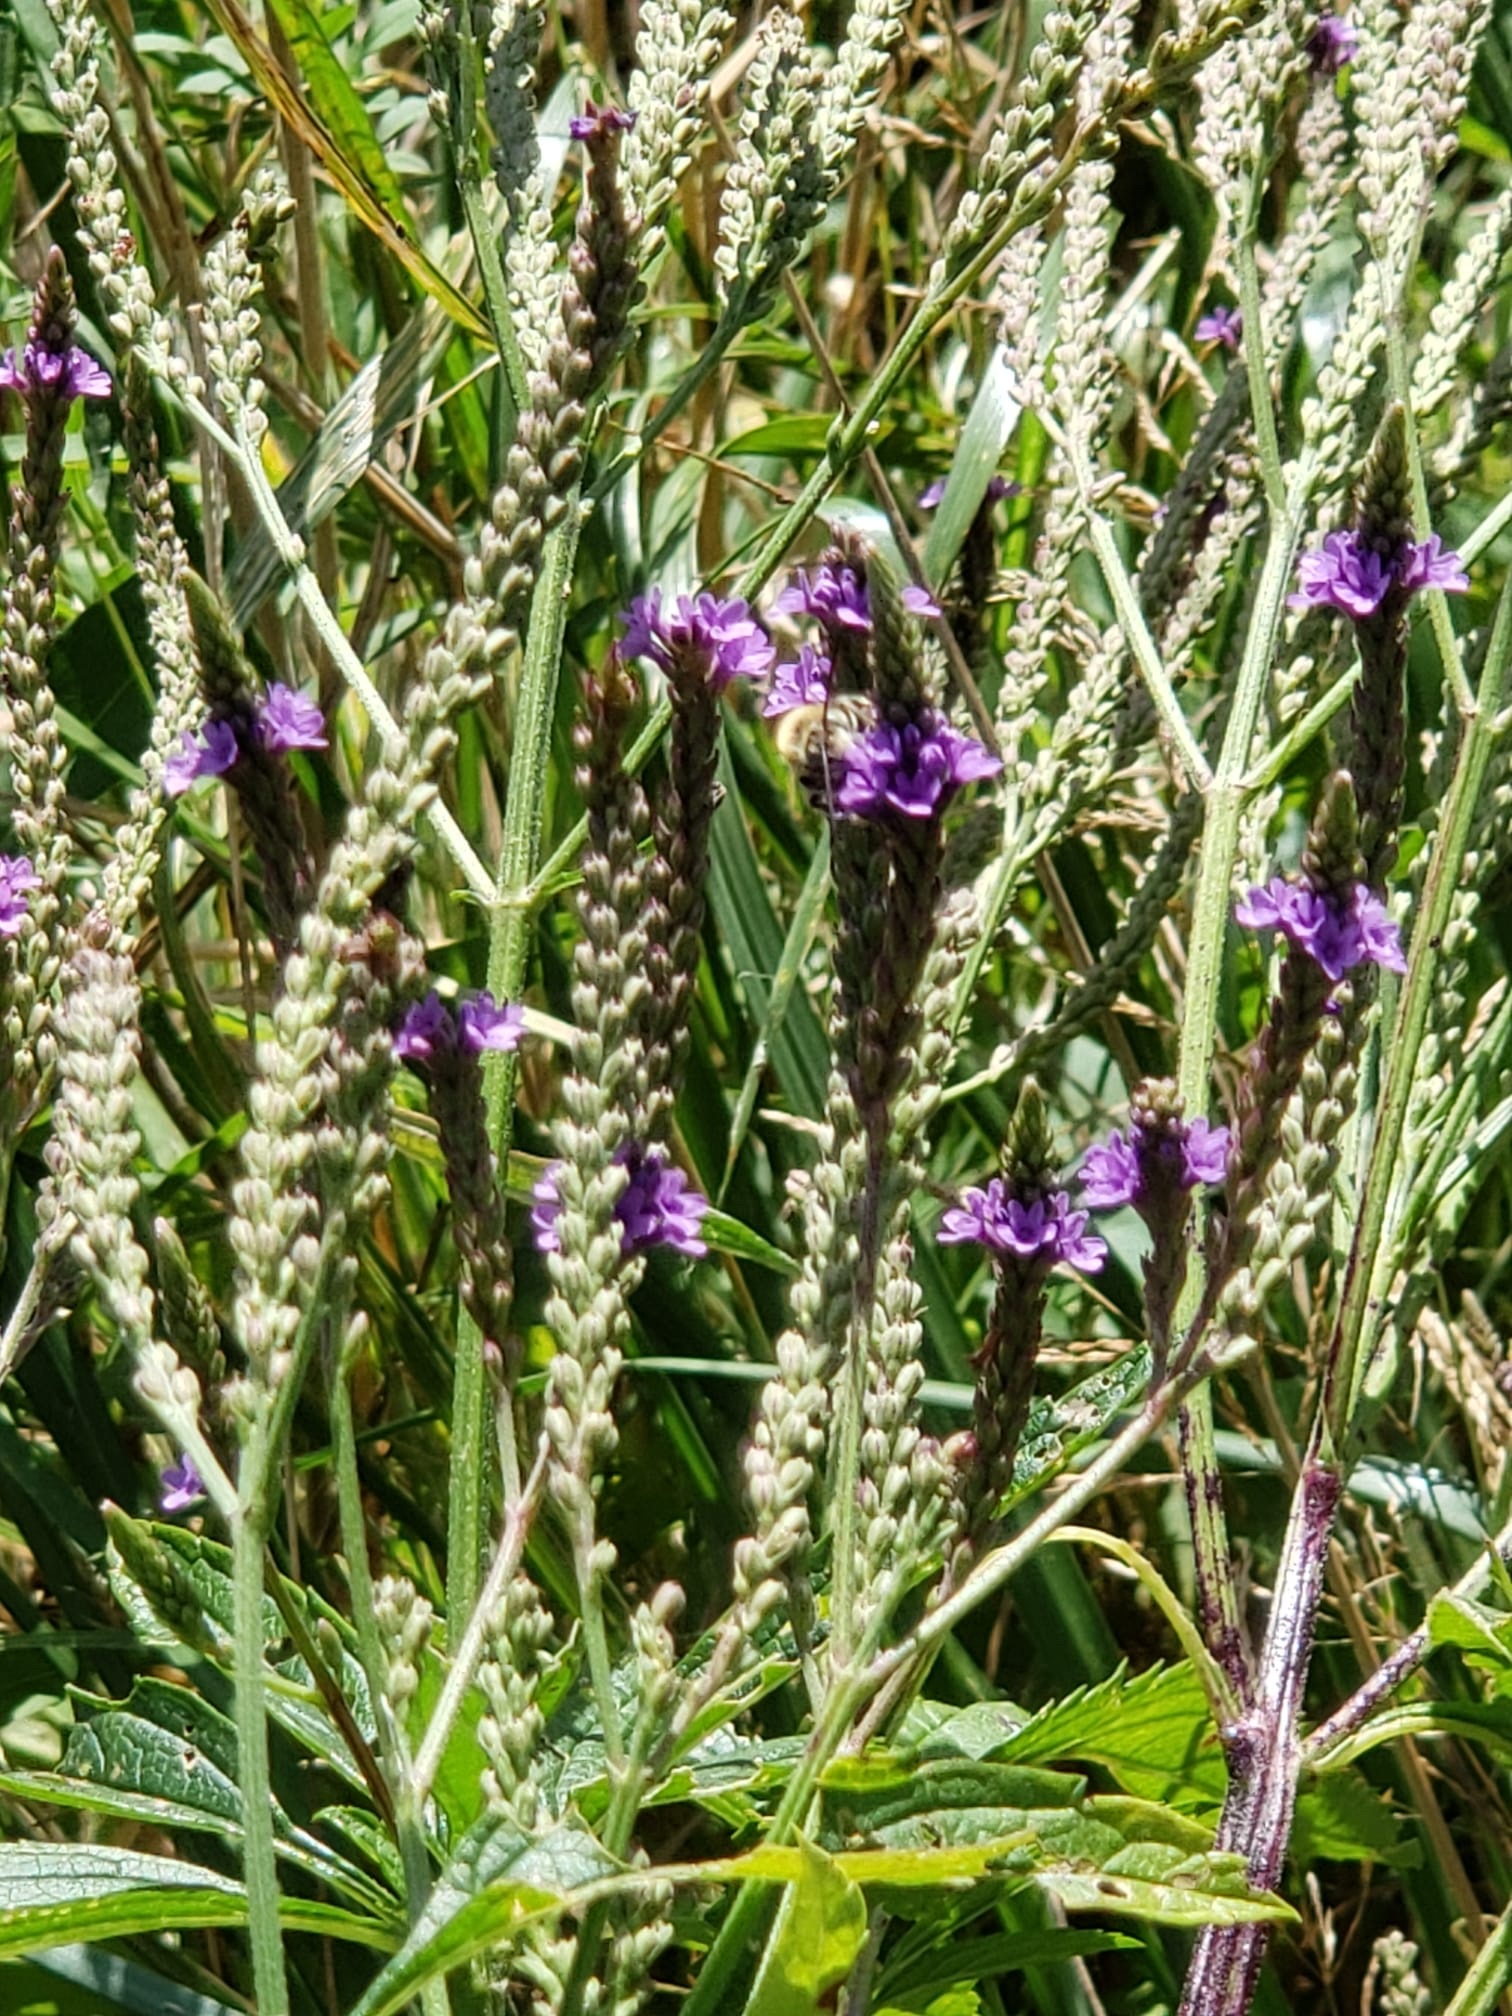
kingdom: Plantae
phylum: Tracheophyta
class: Magnoliopsida
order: Lamiales
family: Verbenaceae
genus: Verbena
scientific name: Verbena hastata
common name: American blue vervain
